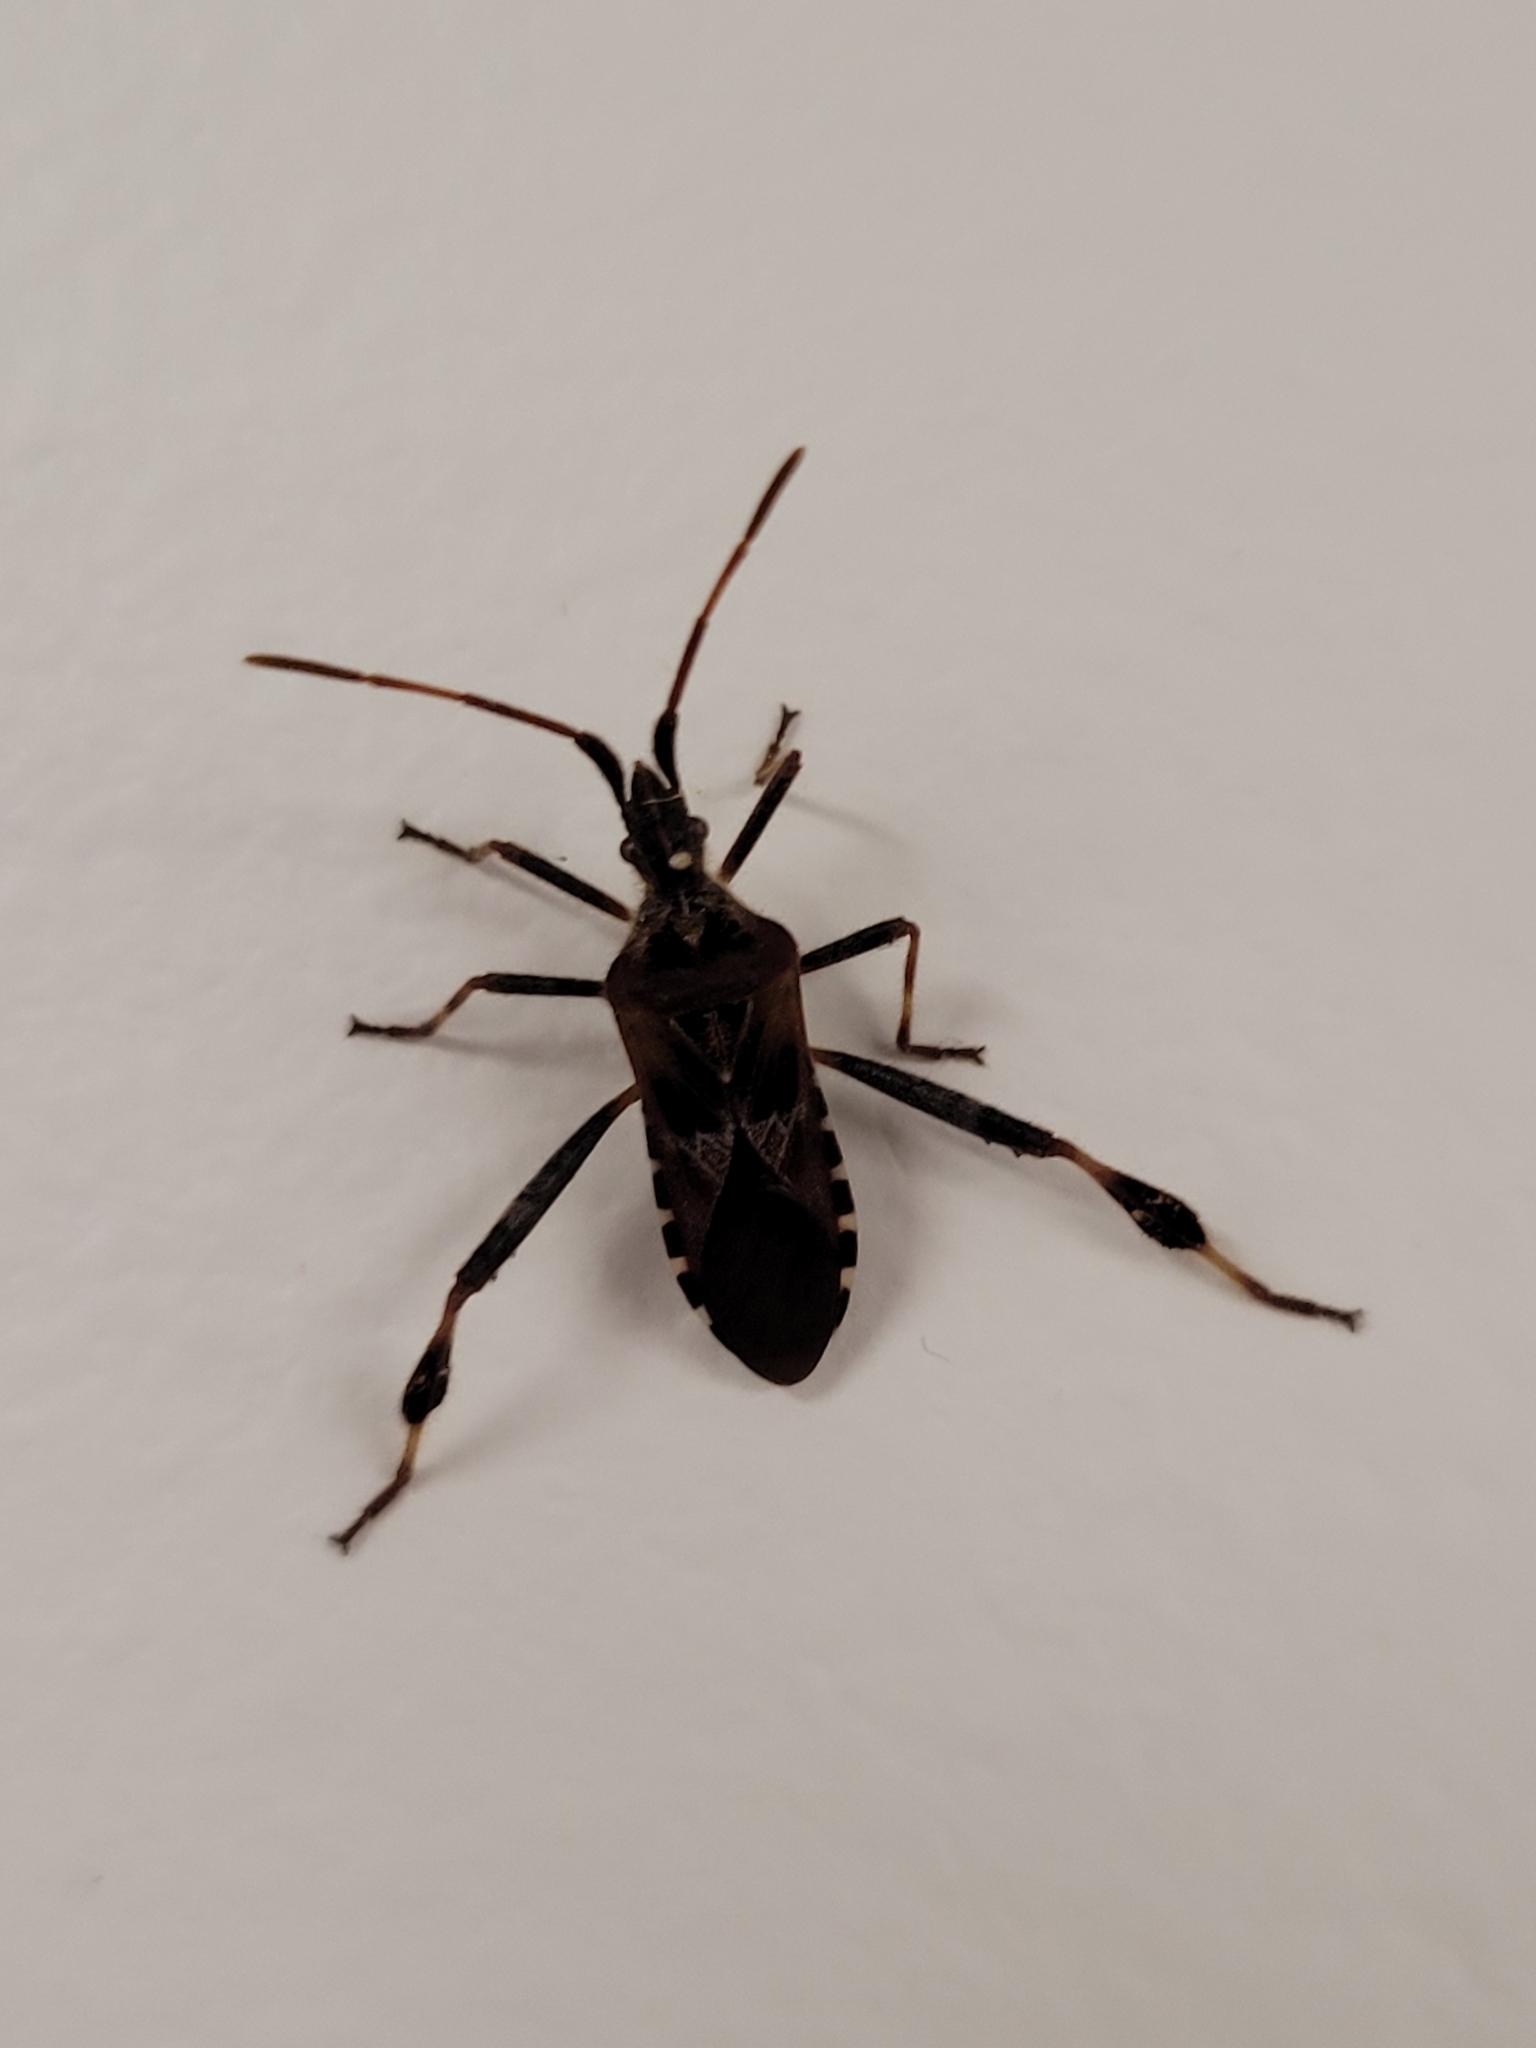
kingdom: Animalia
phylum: Arthropoda
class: Insecta
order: Hemiptera
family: Coreidae
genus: Leptoglossus
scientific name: Leptoglossus occidentalis
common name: Western conifer-seed bug
